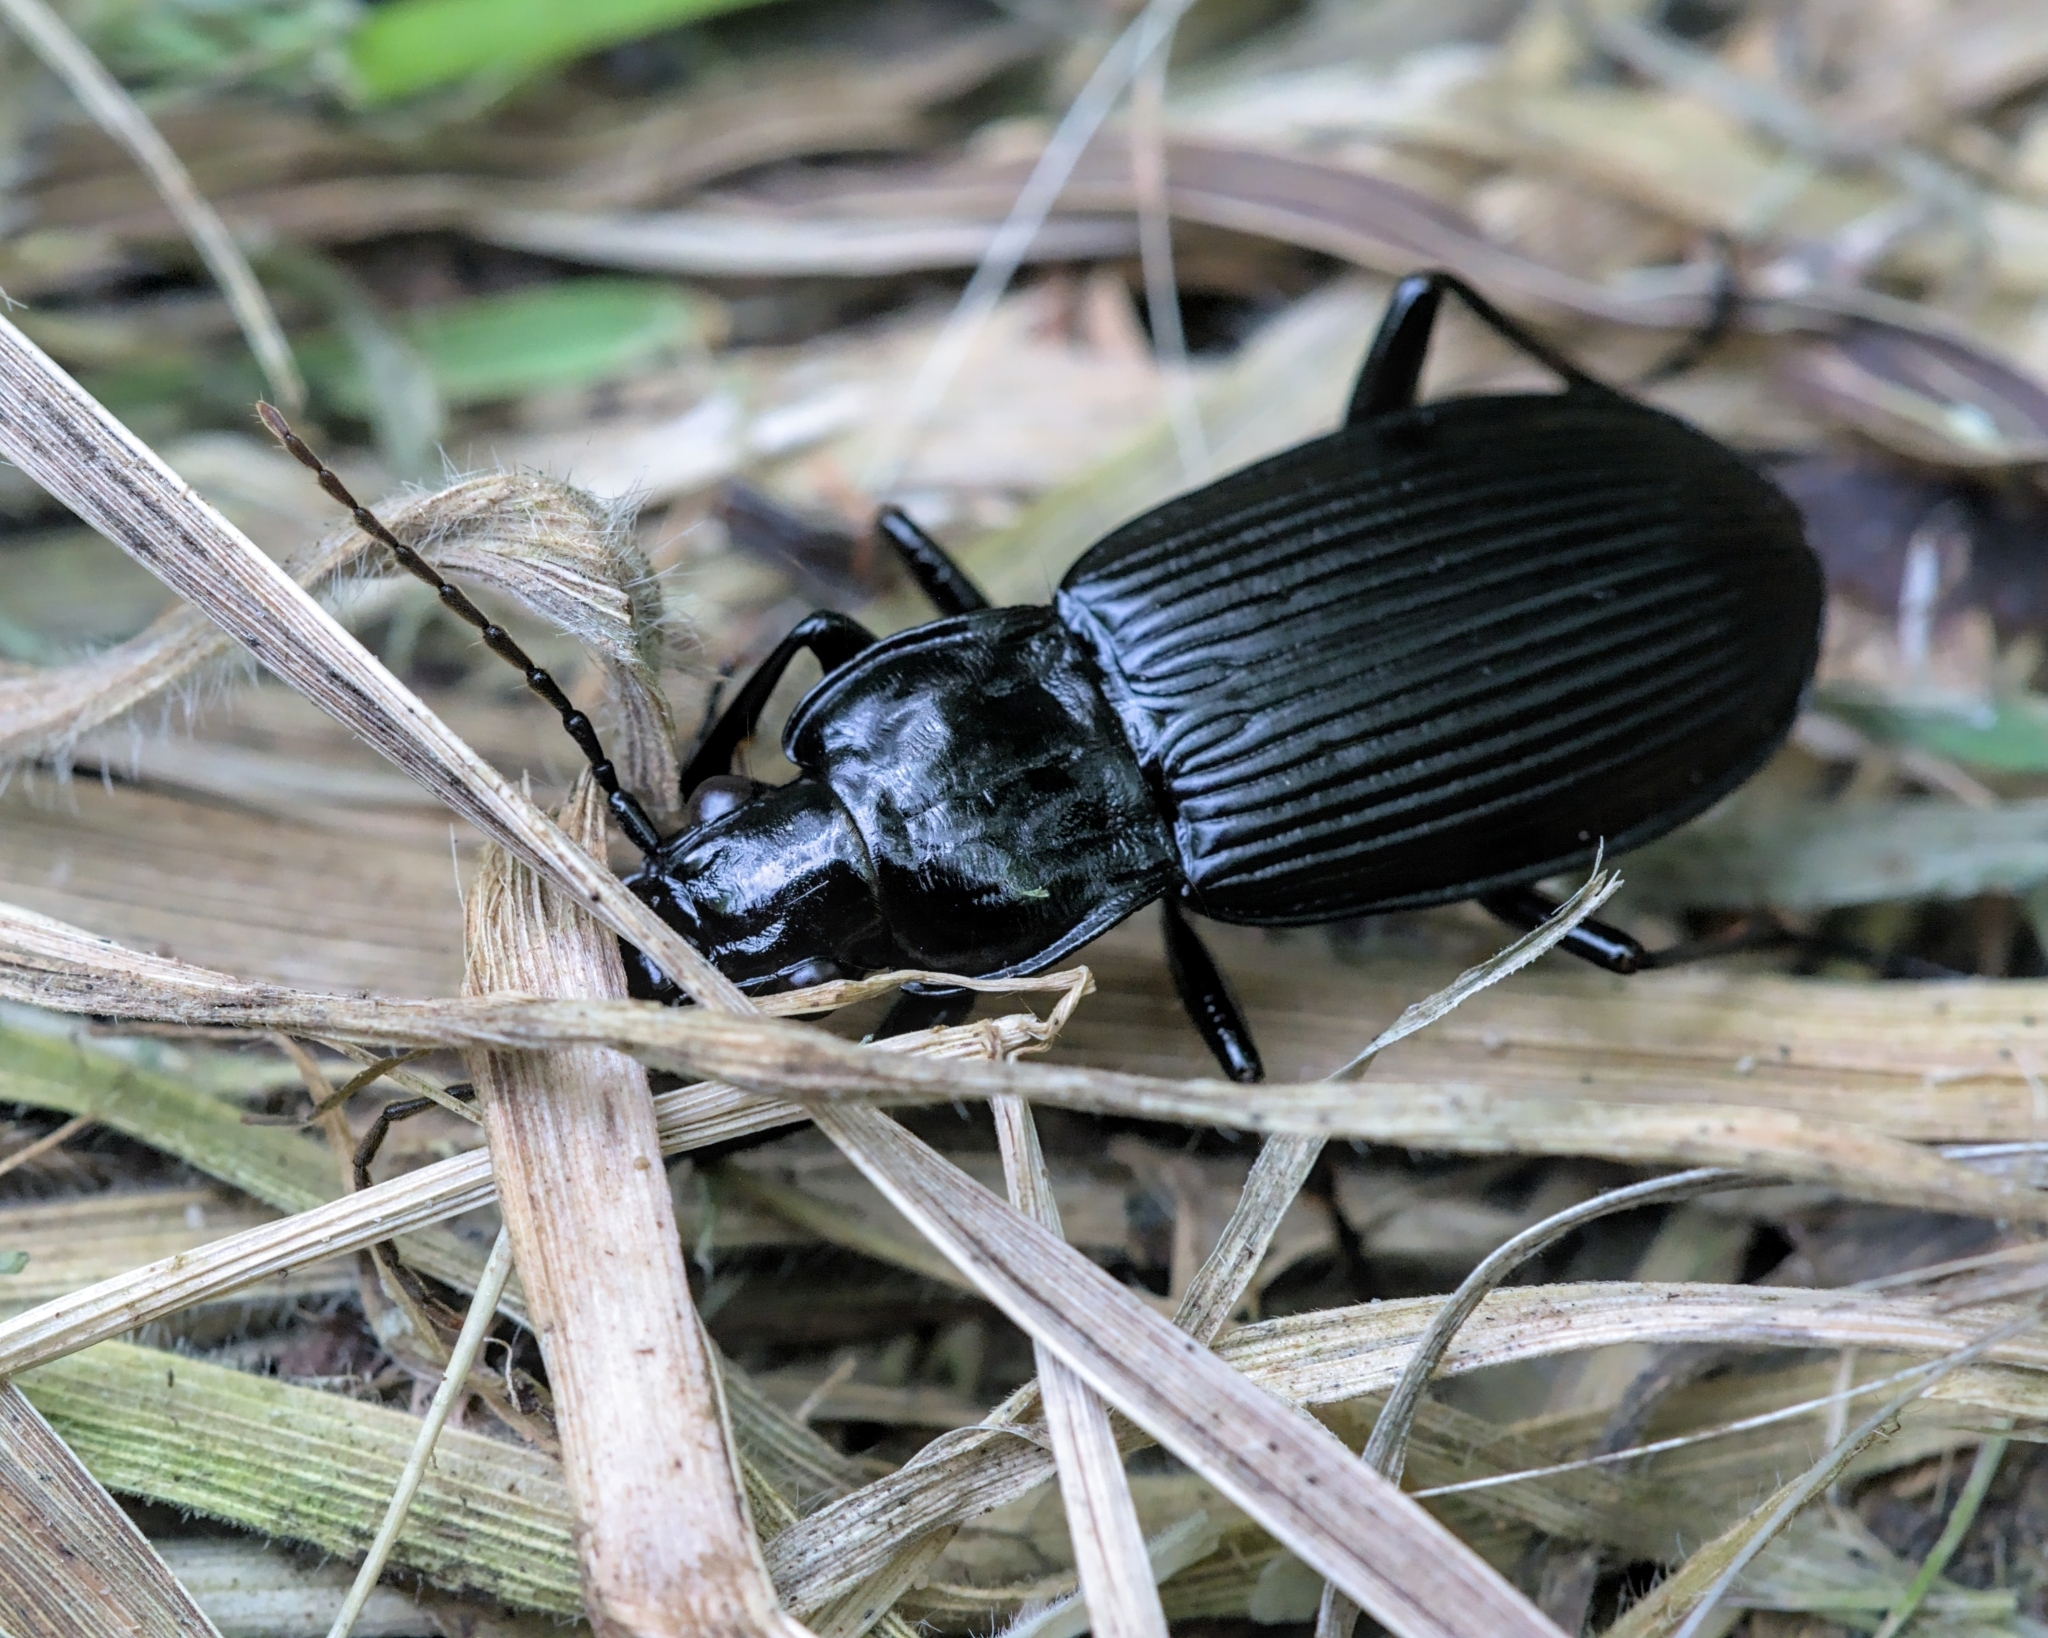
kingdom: Animalia
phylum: Arthropoda
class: Insecta
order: Coleoptera
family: Carabidae
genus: Pterostichus
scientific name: Pterostichus niger
